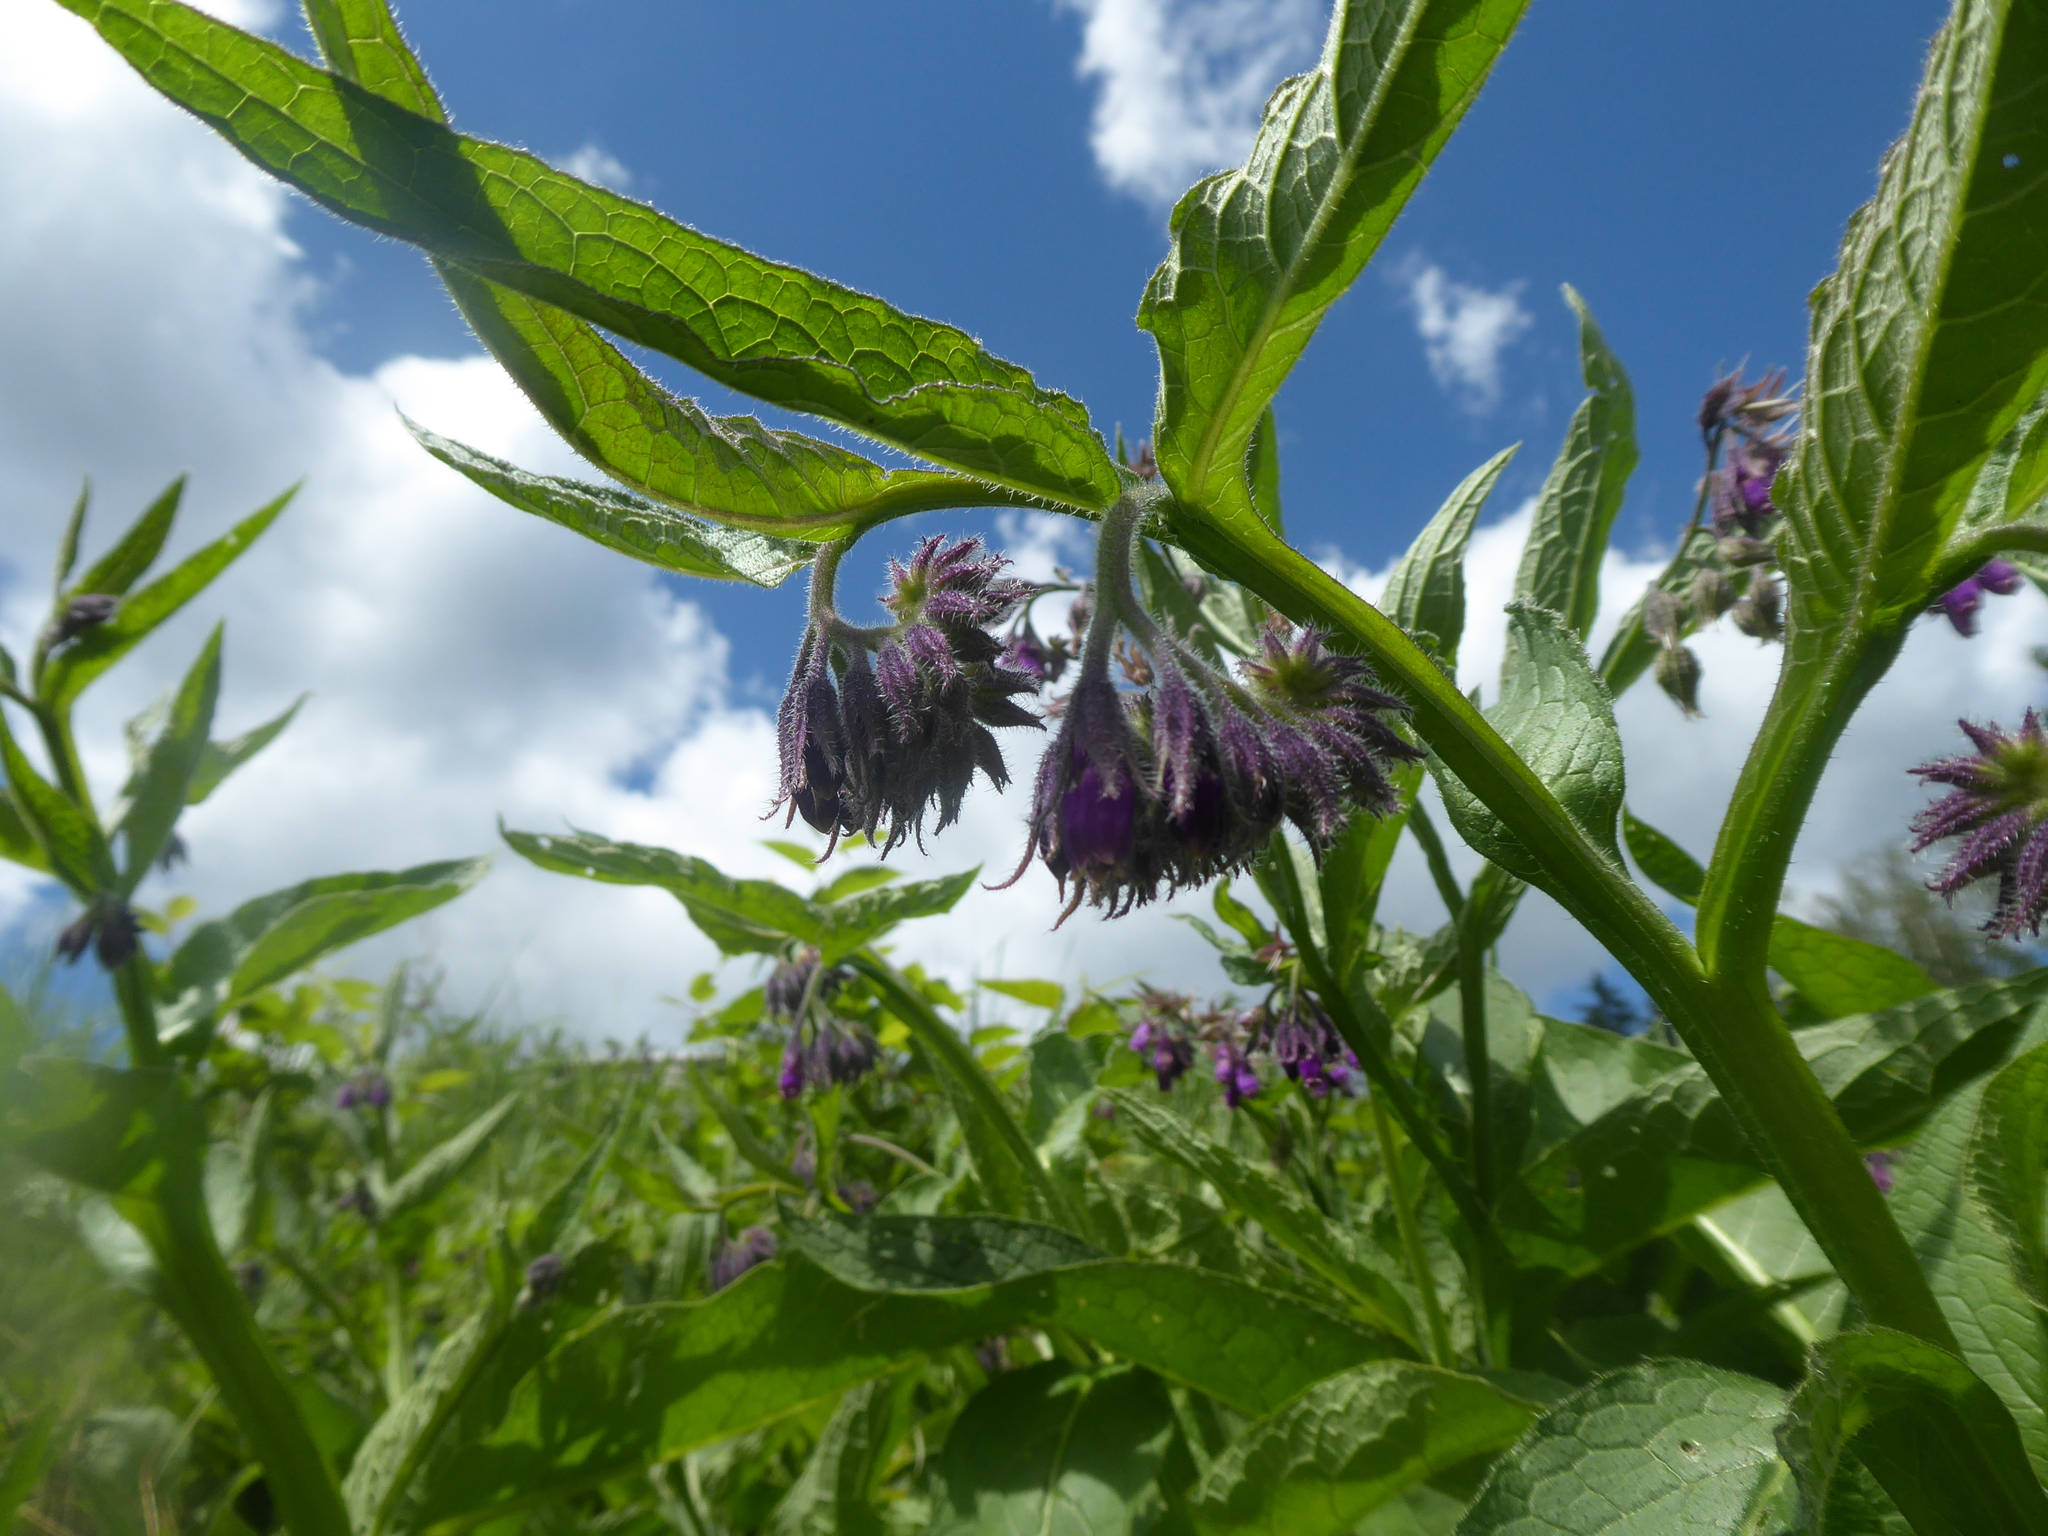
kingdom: Plantae
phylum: Tracheophyta
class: Magnoliopsida
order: Boraginales
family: Boraginaceae
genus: Symphytum
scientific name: Symphytum officinale
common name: Common comfrey
